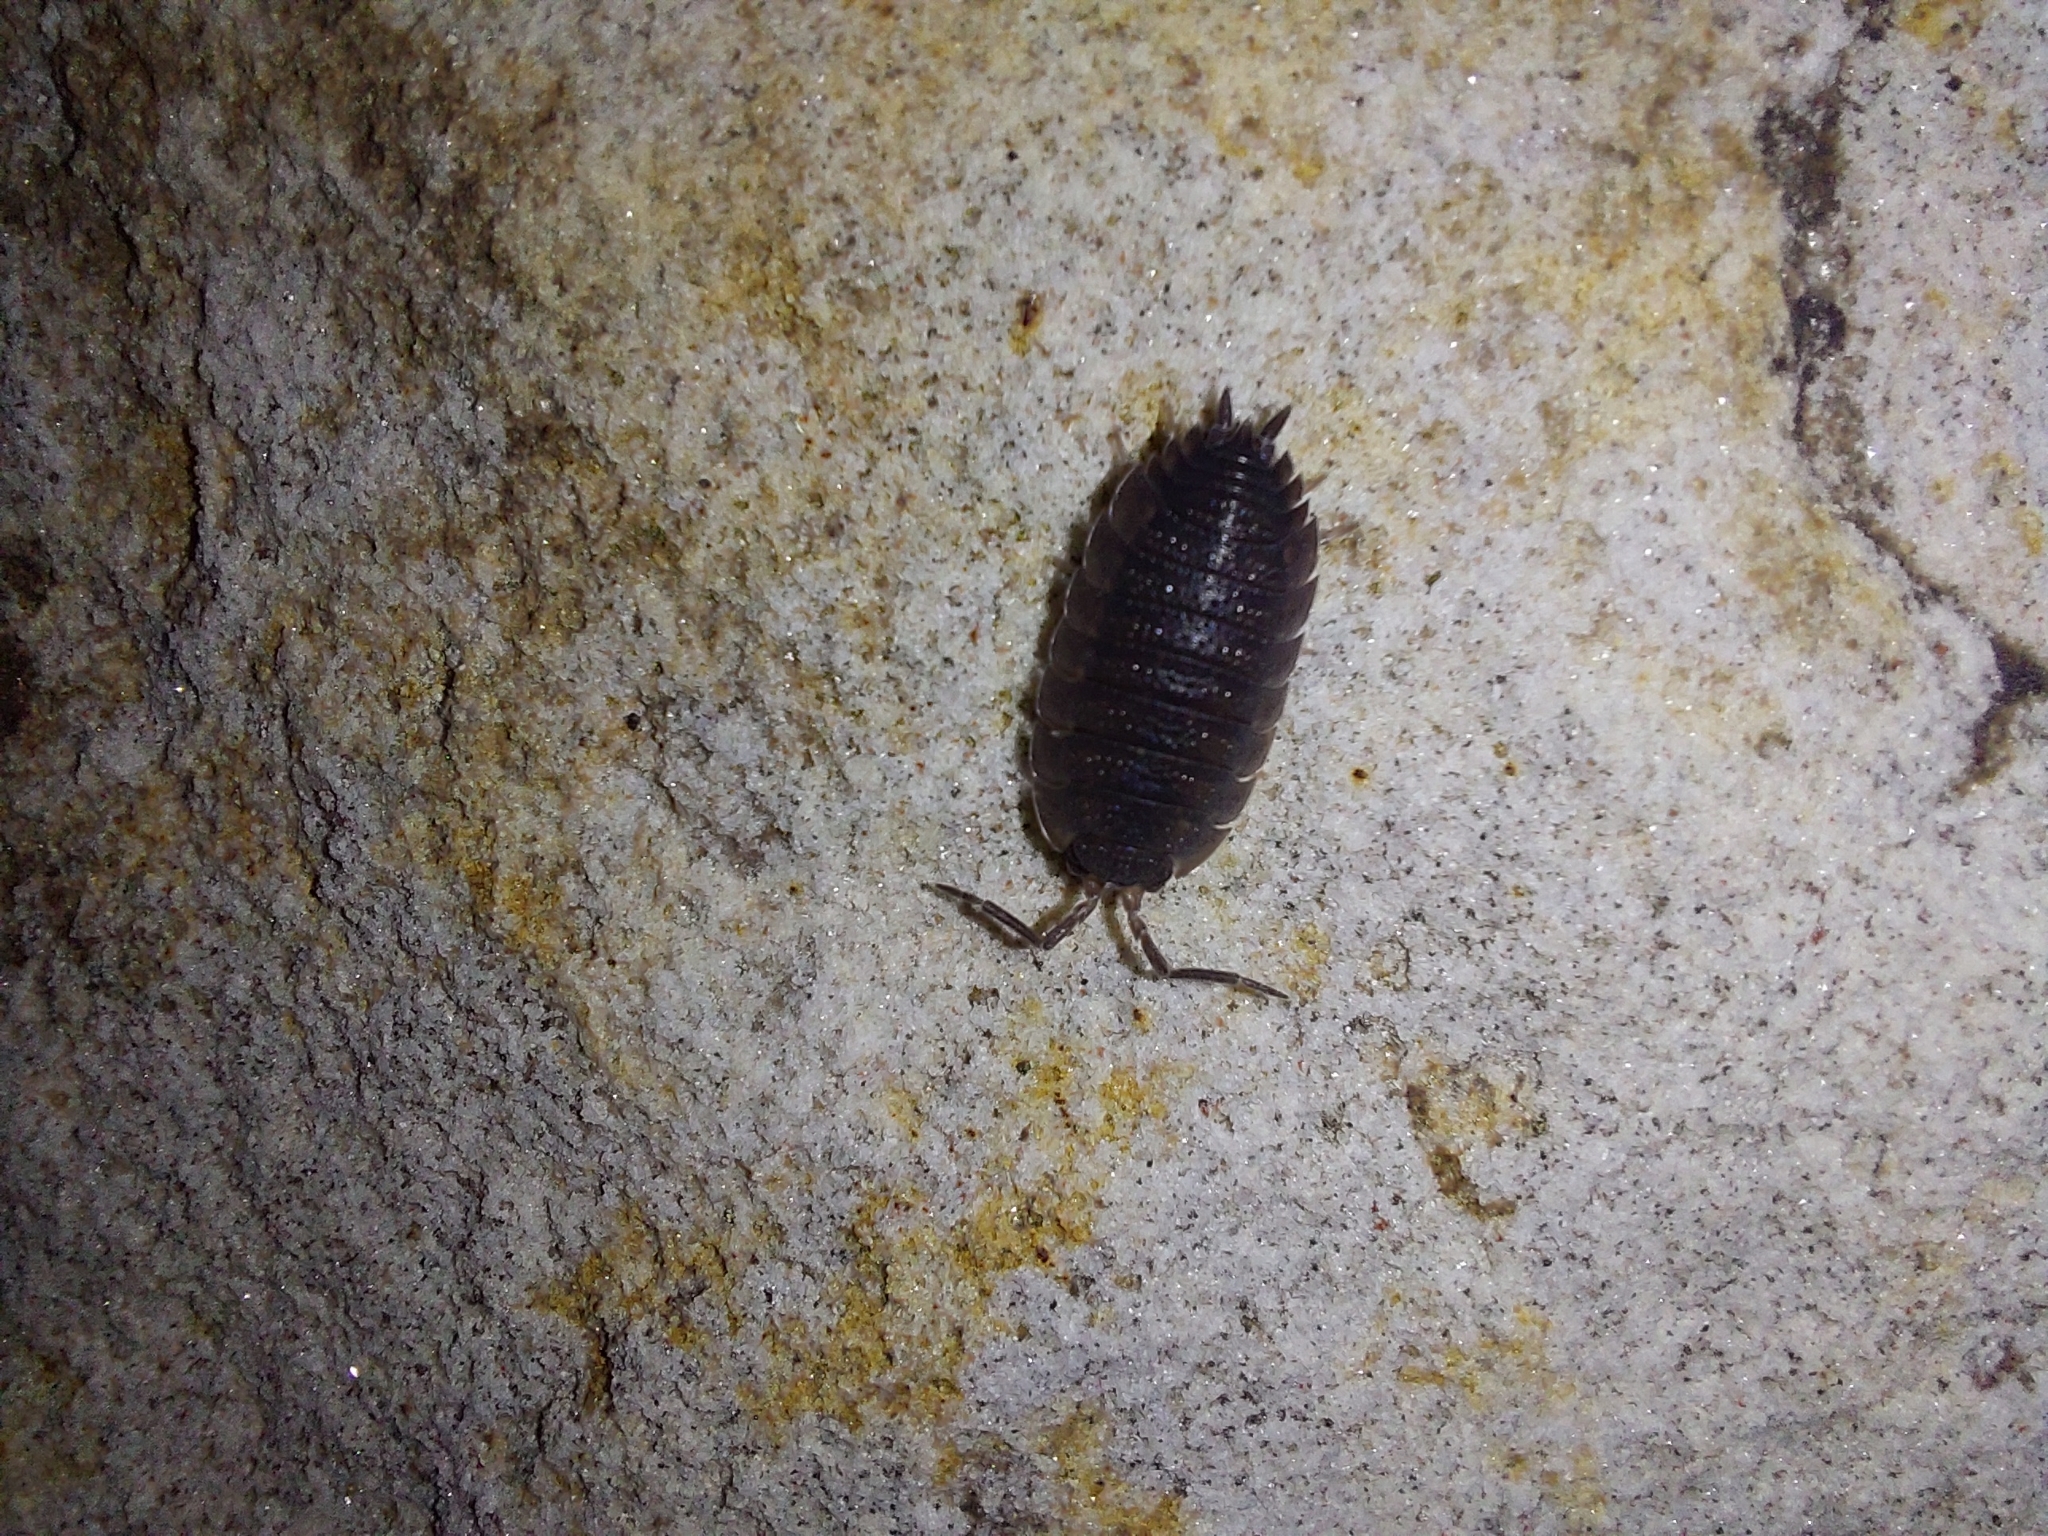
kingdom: Animalia
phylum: Arthropoda
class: Malacostraca
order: Isopoda
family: Porcellionidae
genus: Porcellio
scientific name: Porcellio scaber
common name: Common rough woodlouse
